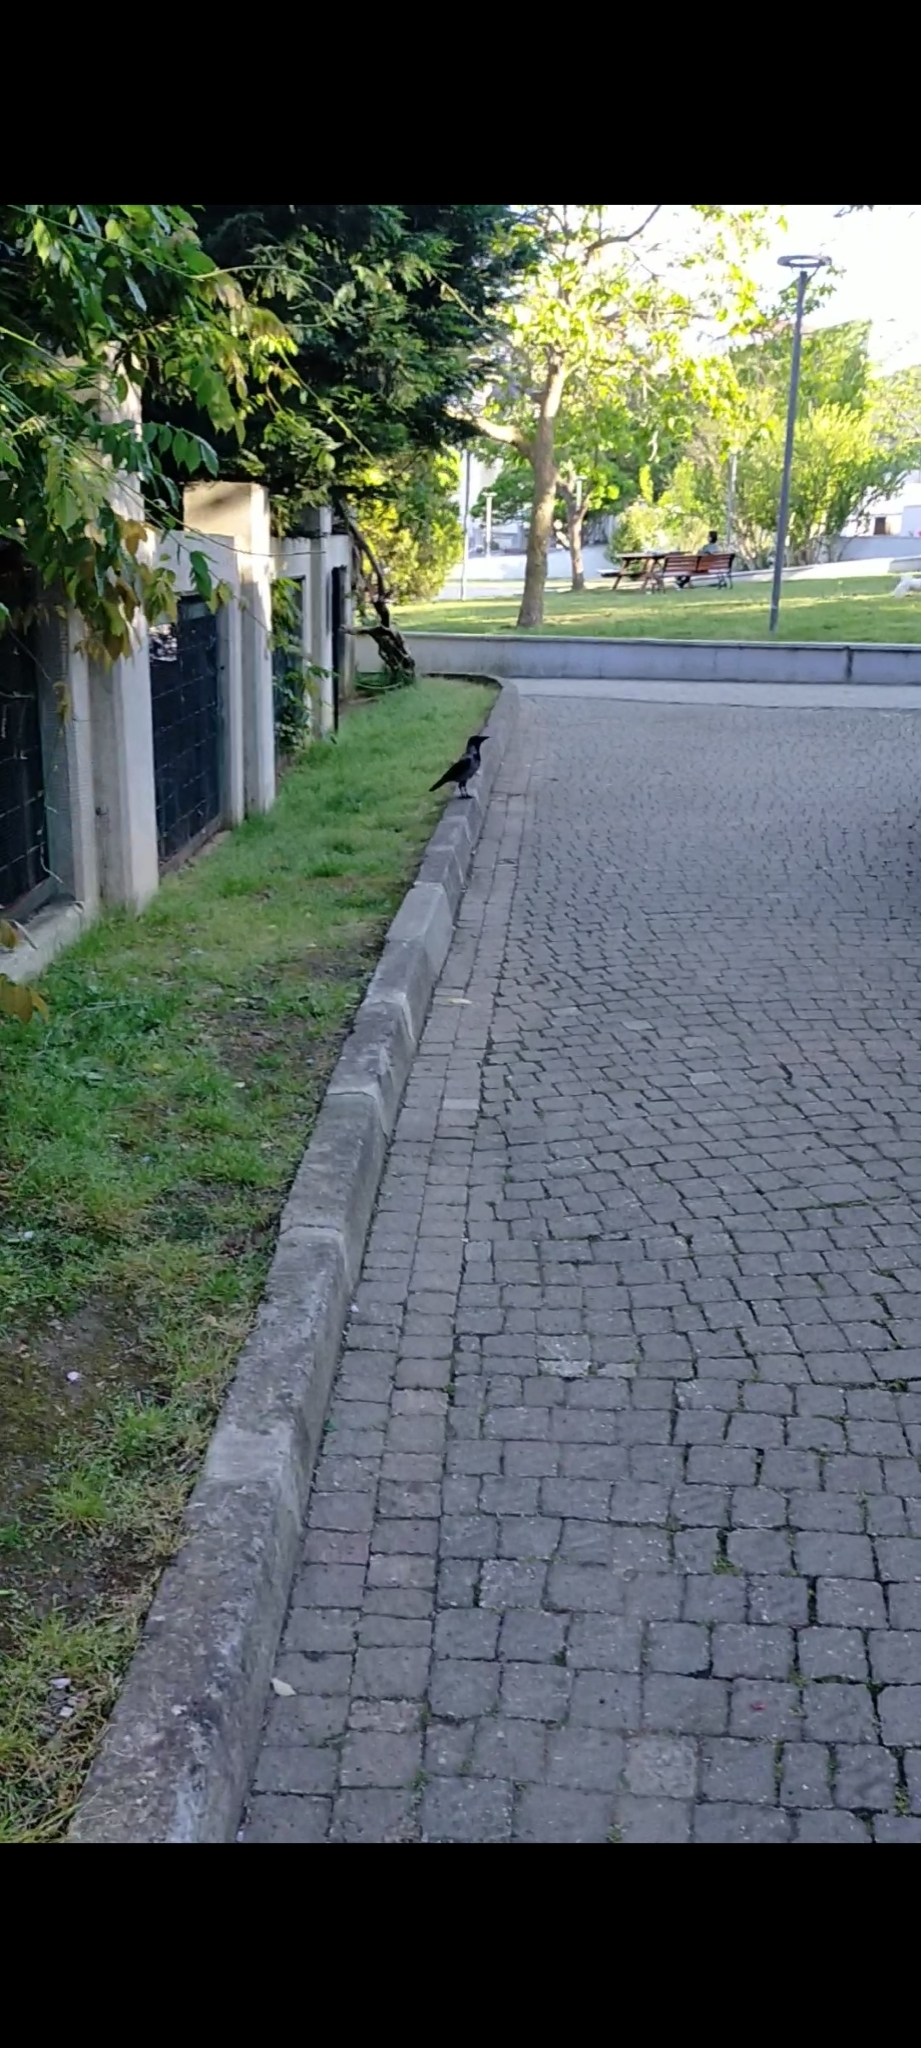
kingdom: Animalia
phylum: Chordata
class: Aves
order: Passeriformes
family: Corvidae
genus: Corvus
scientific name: Corvus cornix
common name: Hooded crow
